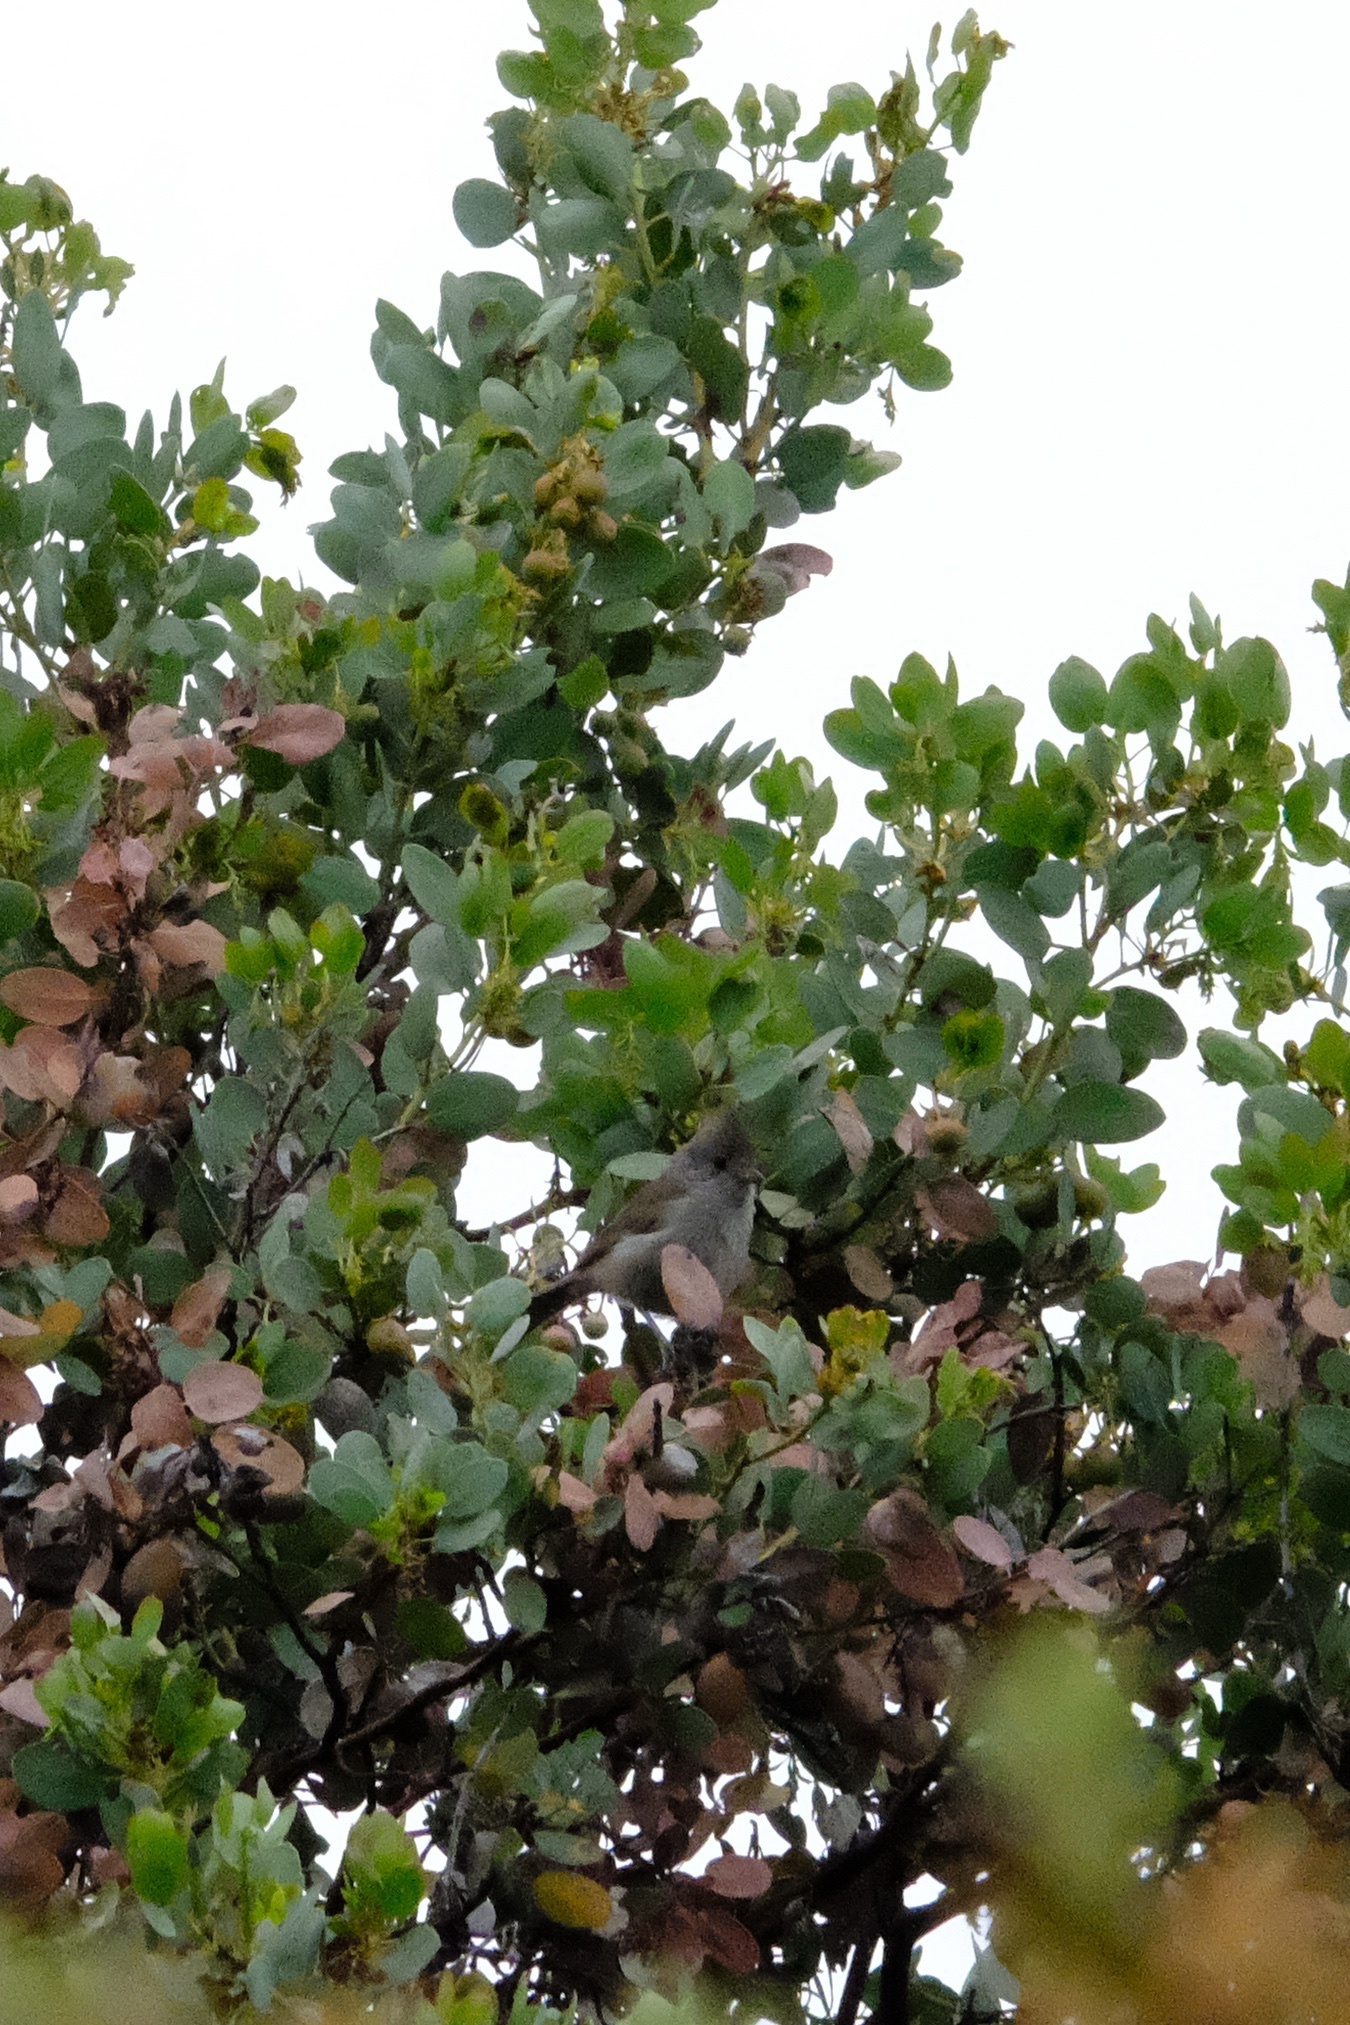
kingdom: Animalia
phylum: Chordata
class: Aves
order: Passeriformes
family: Paridae
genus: Baeolophus
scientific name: Baeolophus inornatus
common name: Oak titmouse
